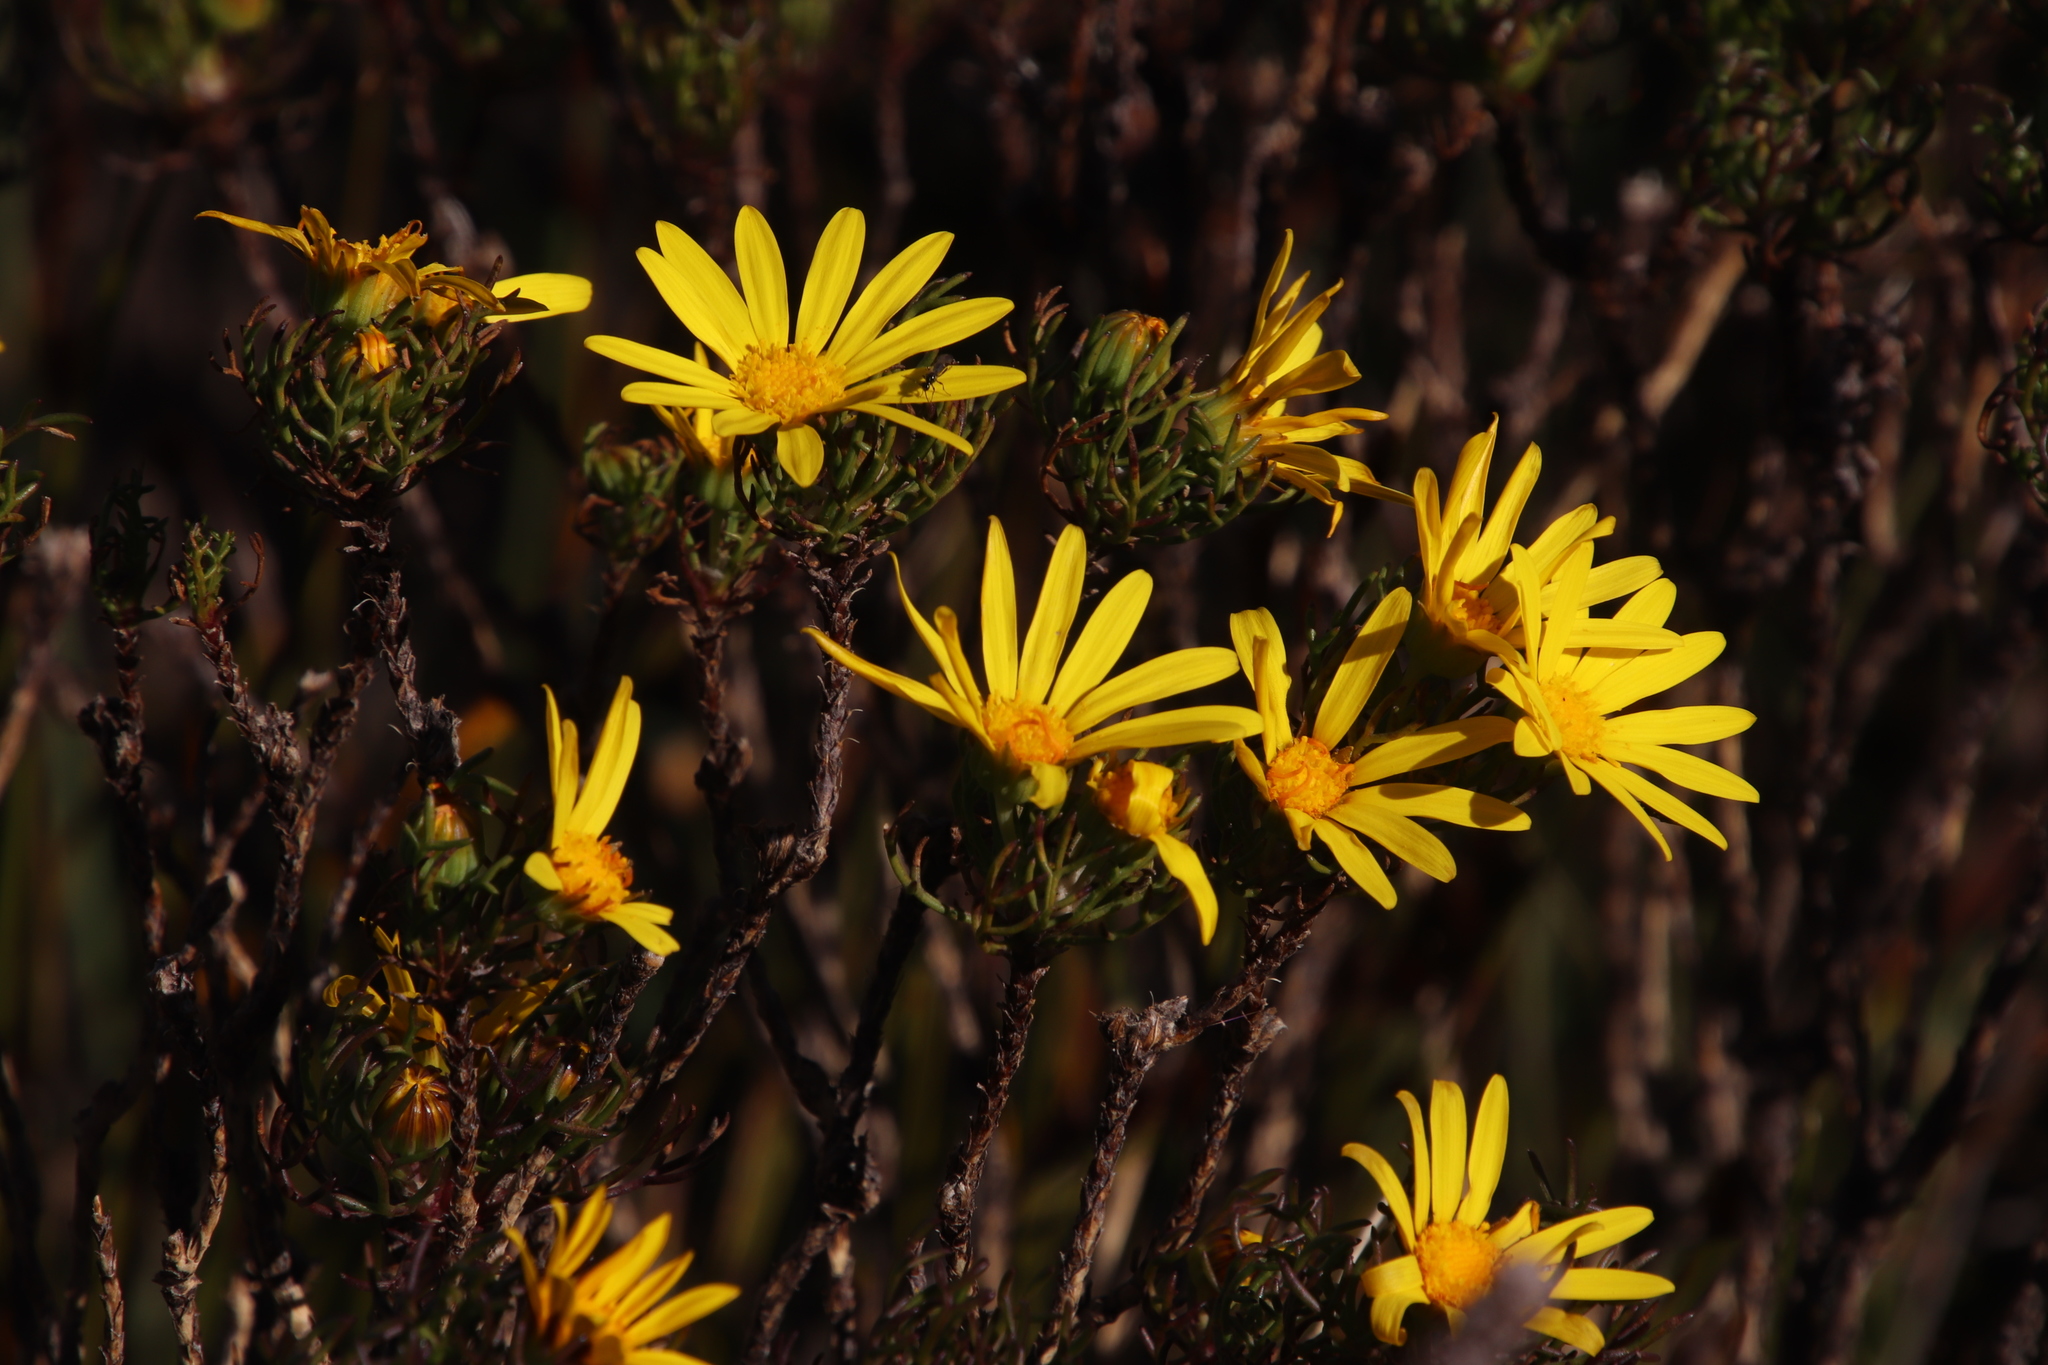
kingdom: Plantae
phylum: Tracheophyta
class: Magnoliopsida
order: Asterales
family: Asteraceae
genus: Euryops
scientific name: Euryops abrotanifolius
